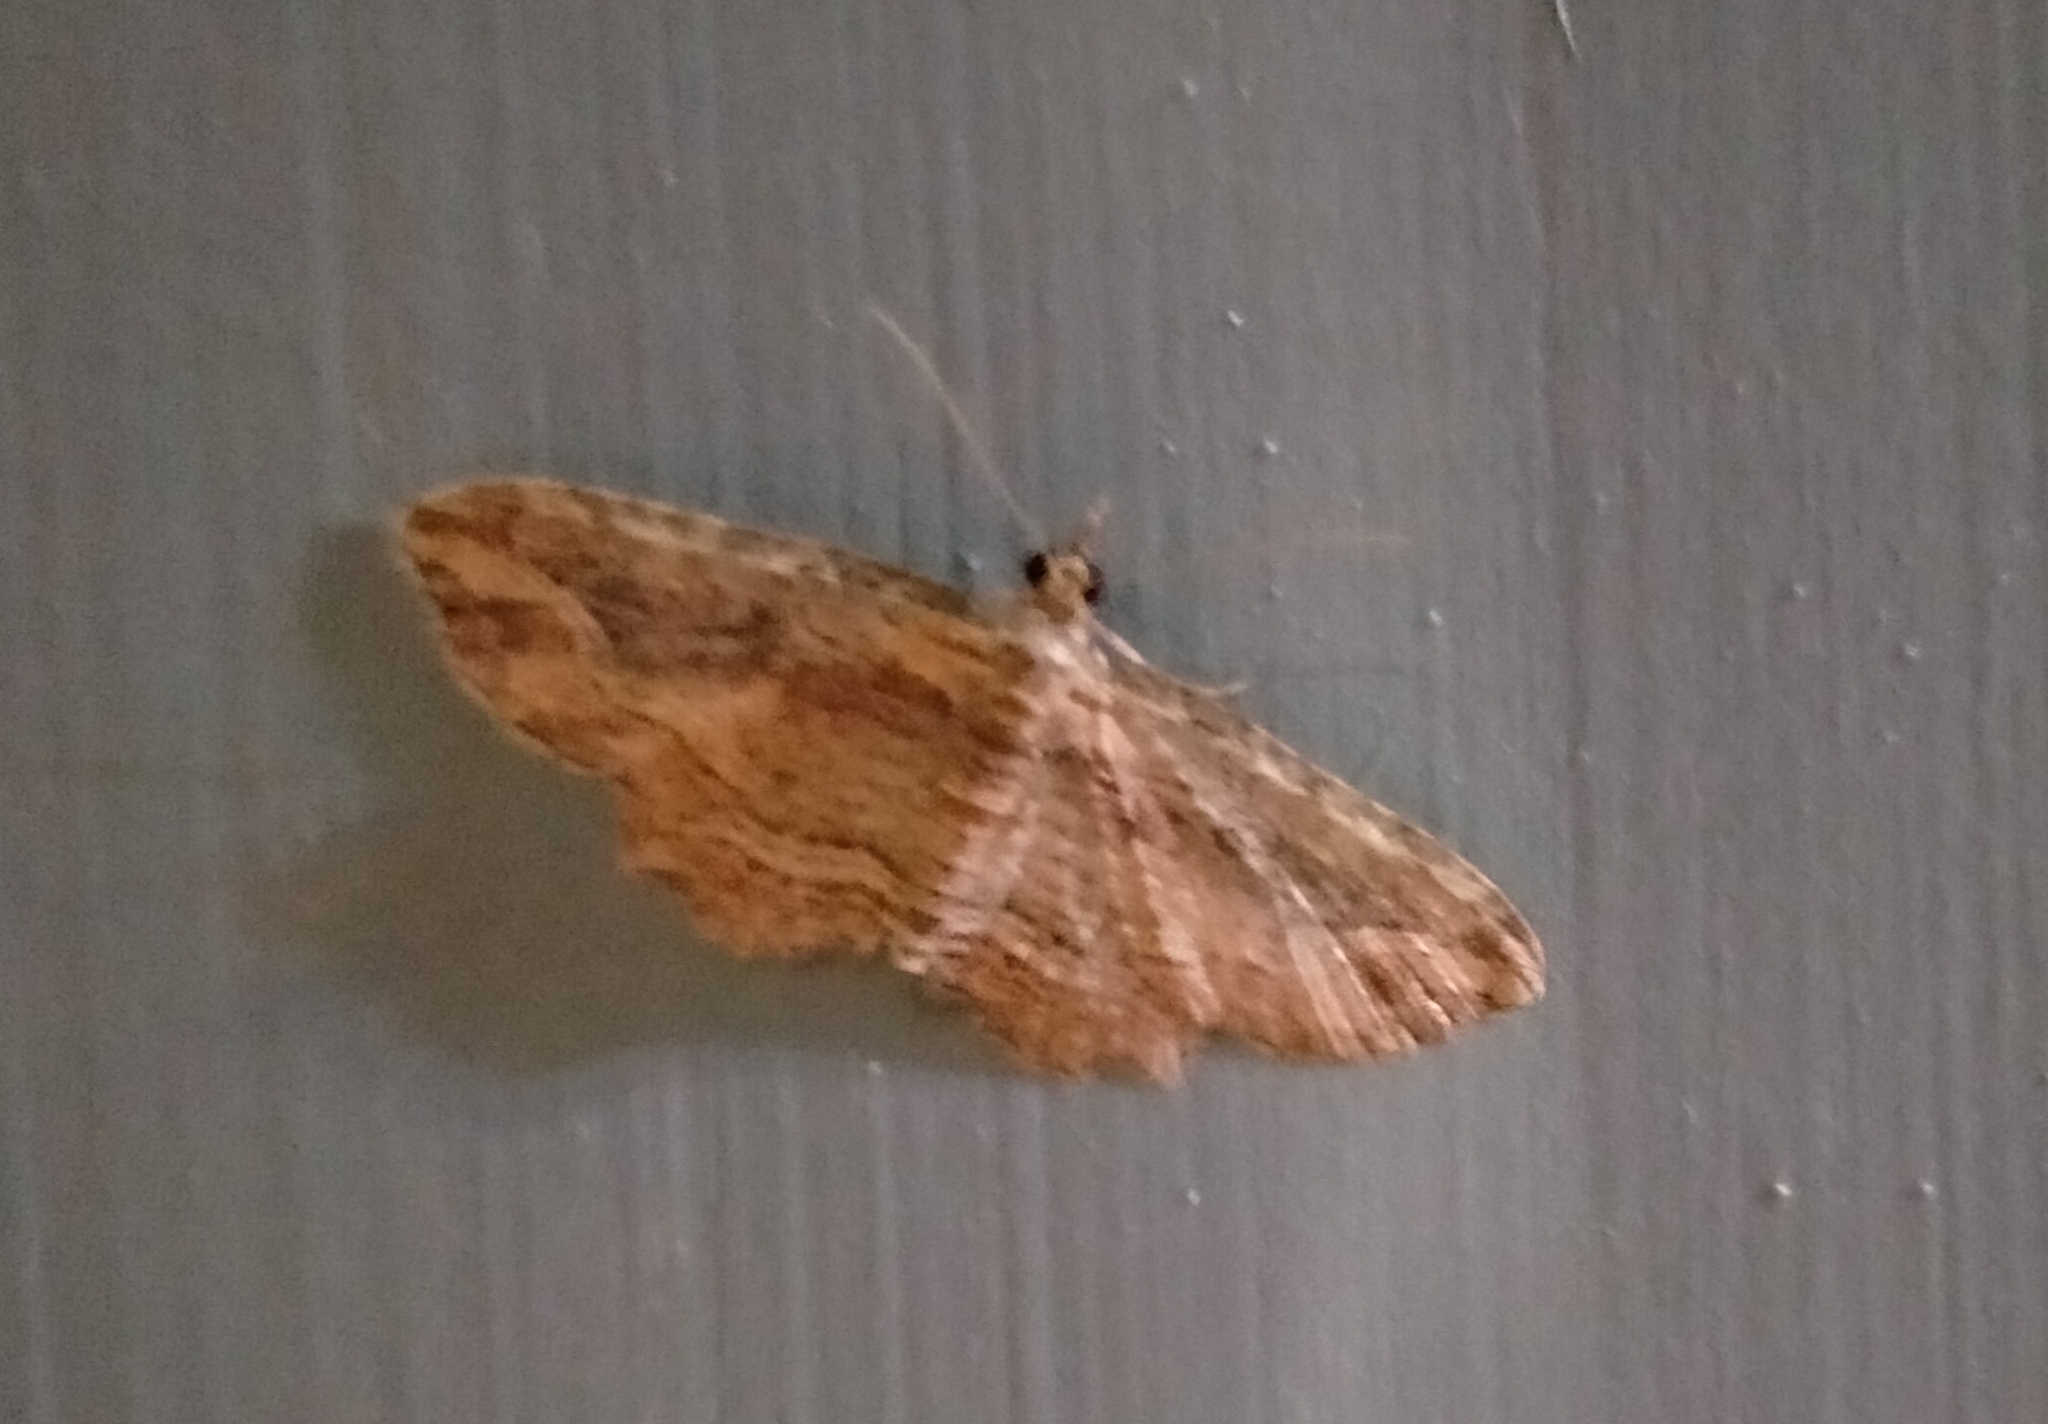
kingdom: Animalia
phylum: Arthropoda
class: Insecta
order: Lepidoptera
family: Geometridae
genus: Chloroclystis
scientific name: Chloroclystis filata
